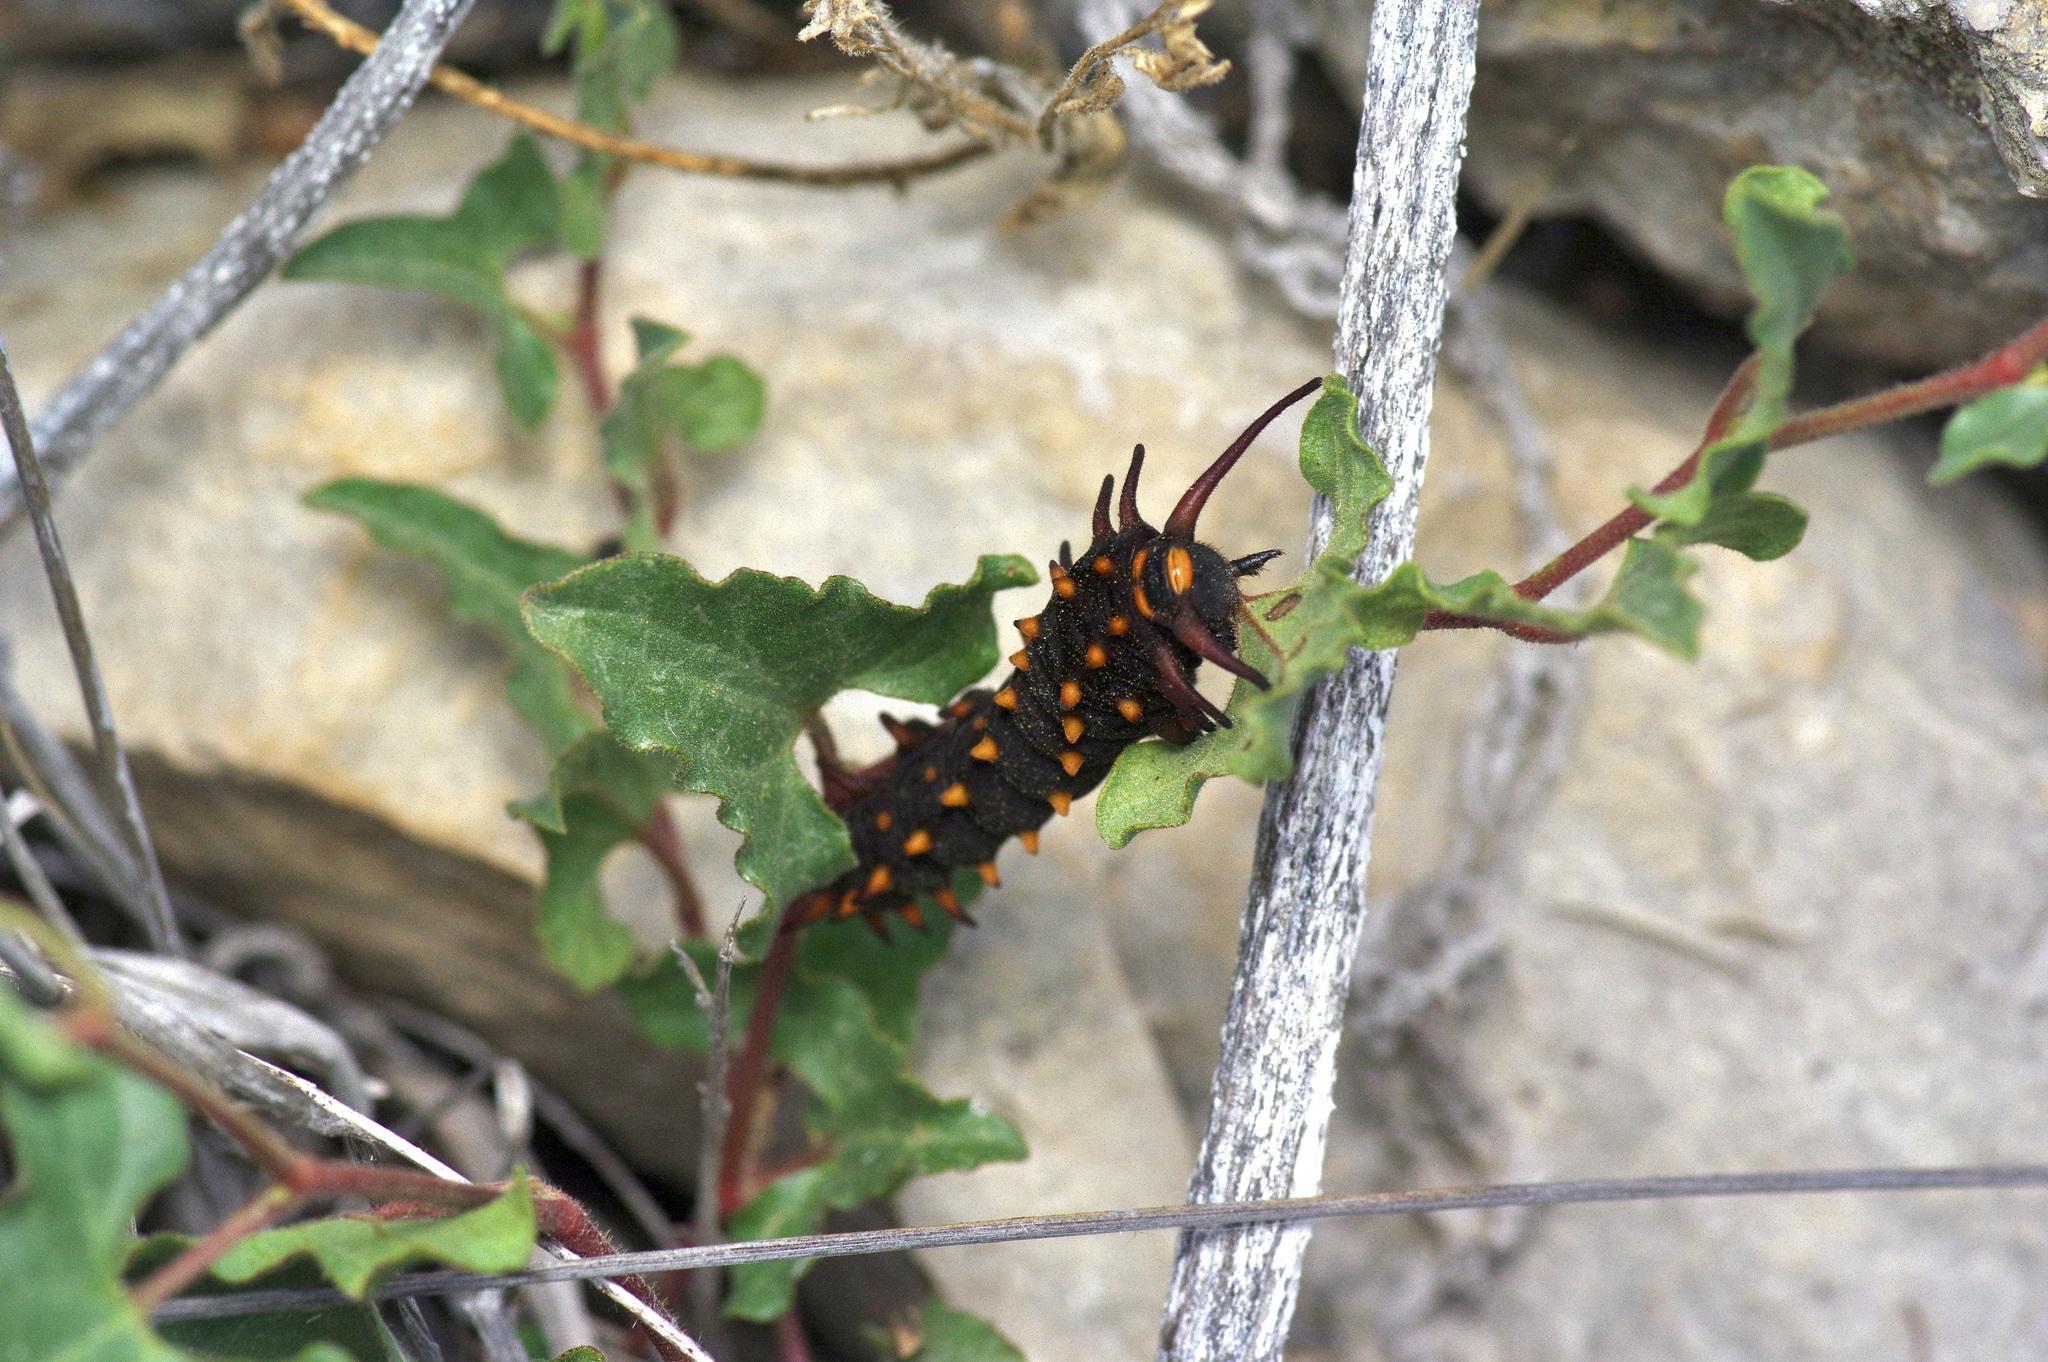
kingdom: Animalia
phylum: Arthropoda
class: Insecta
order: Lepidoptera
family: Papilionidae
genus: Battus
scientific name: Battus philenor
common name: Pipevine swallowtail
